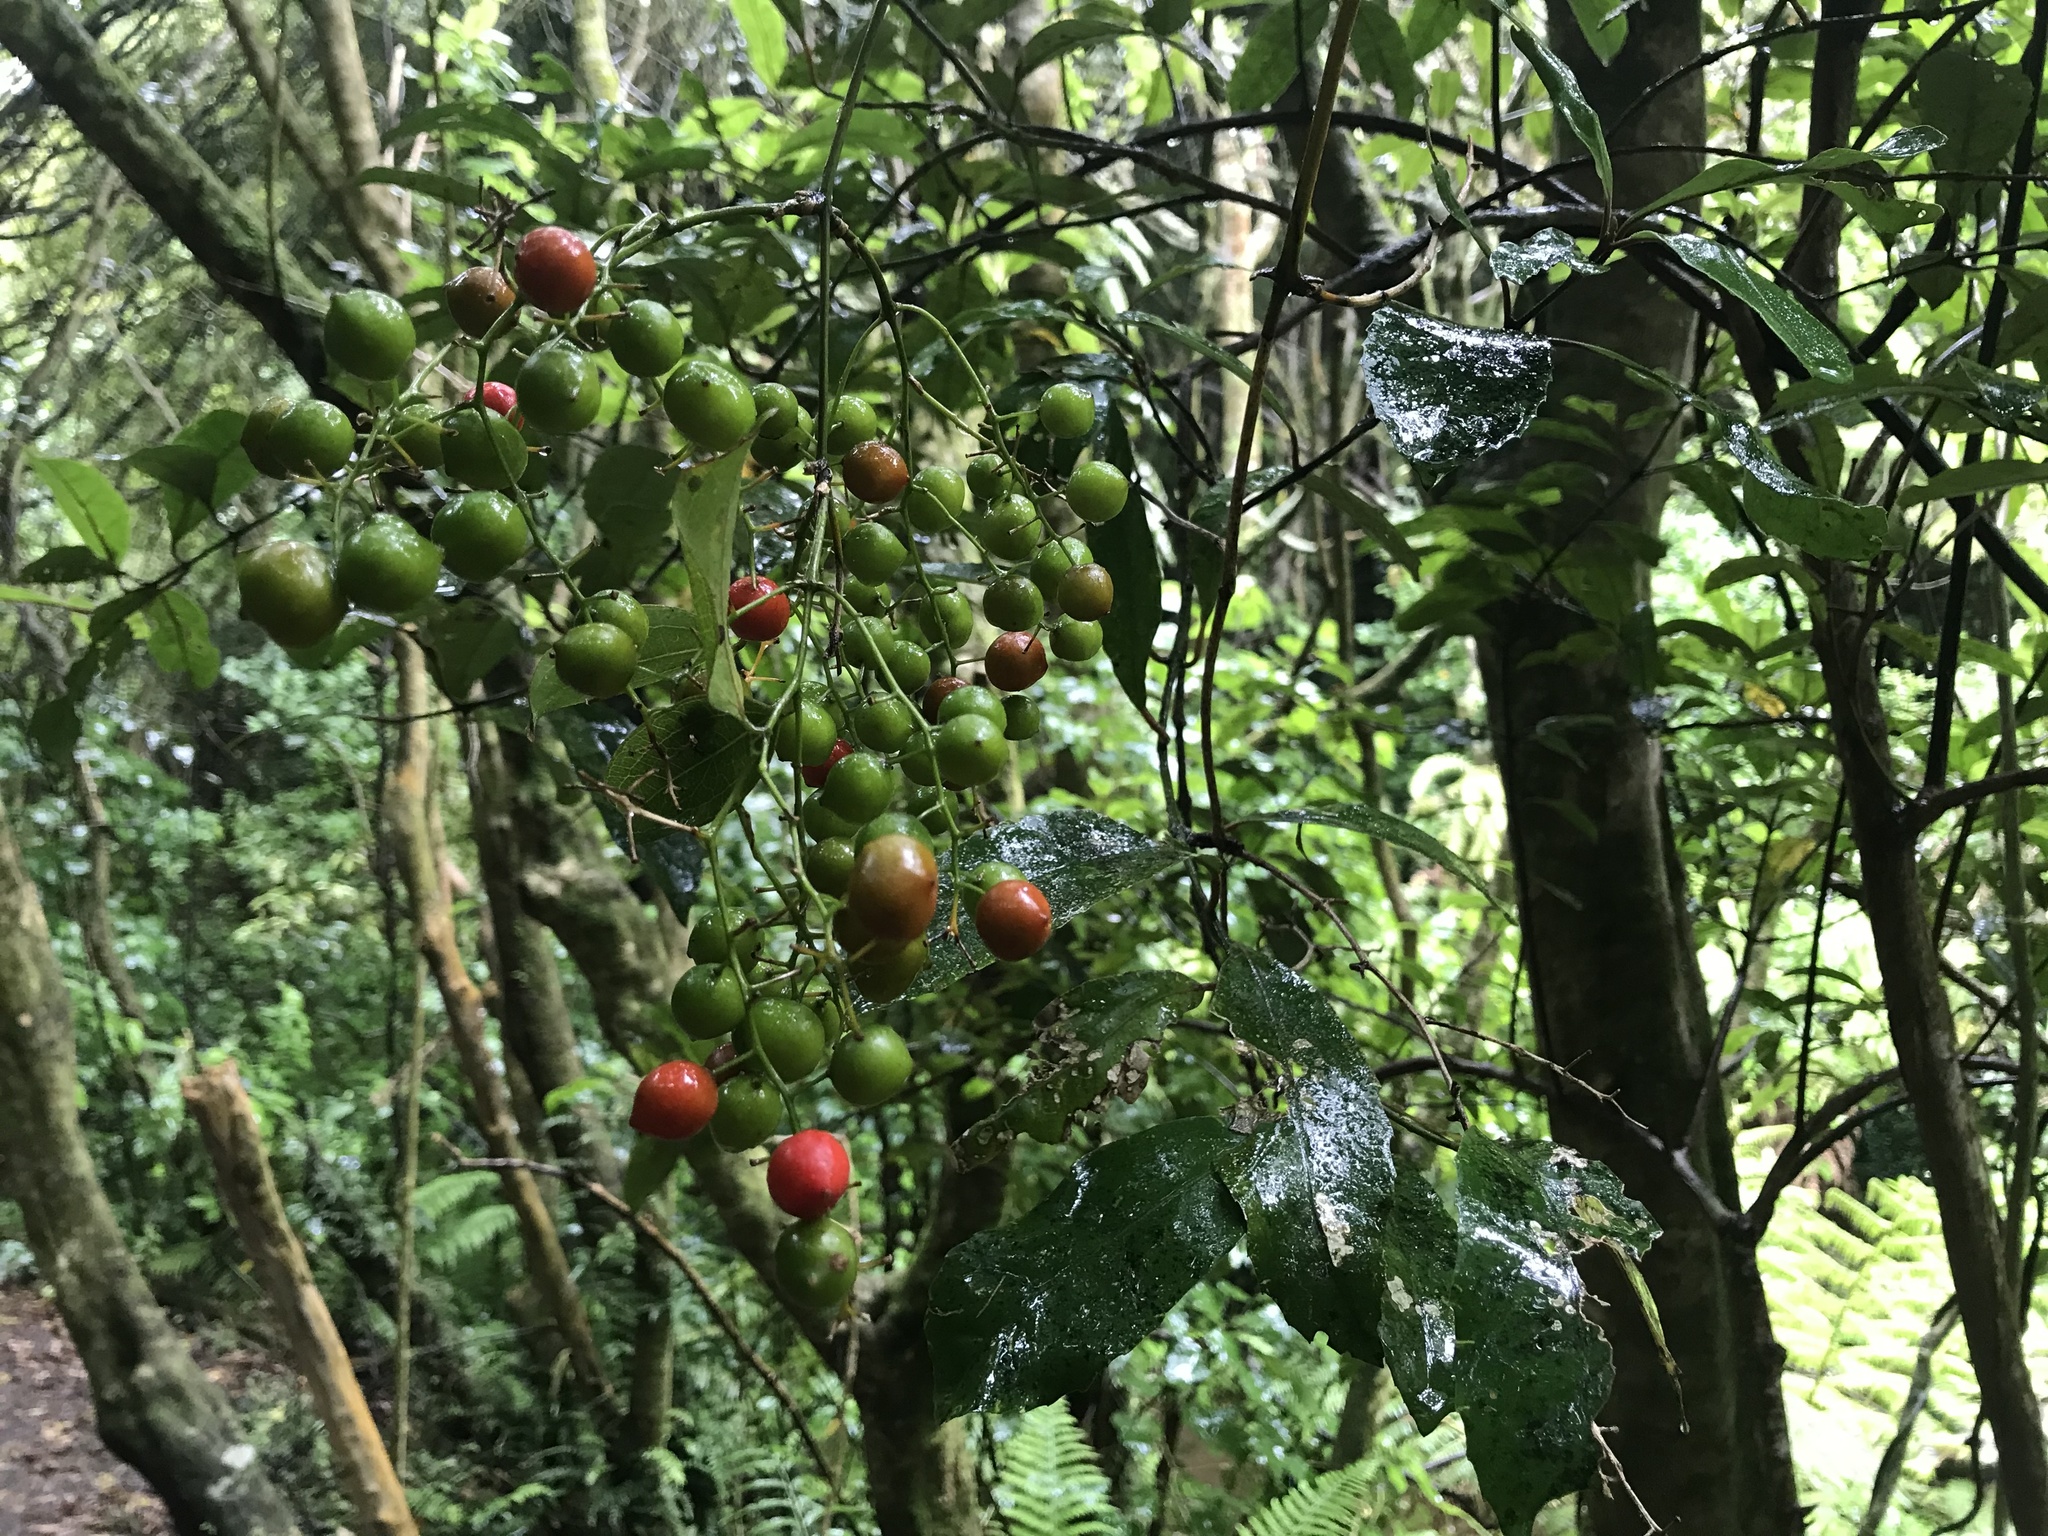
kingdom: Plantae
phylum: Tracheophyta
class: Liliopsida
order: Liliales
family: Ripogonaceae
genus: Ripogonum
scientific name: Ripogonum scandens
